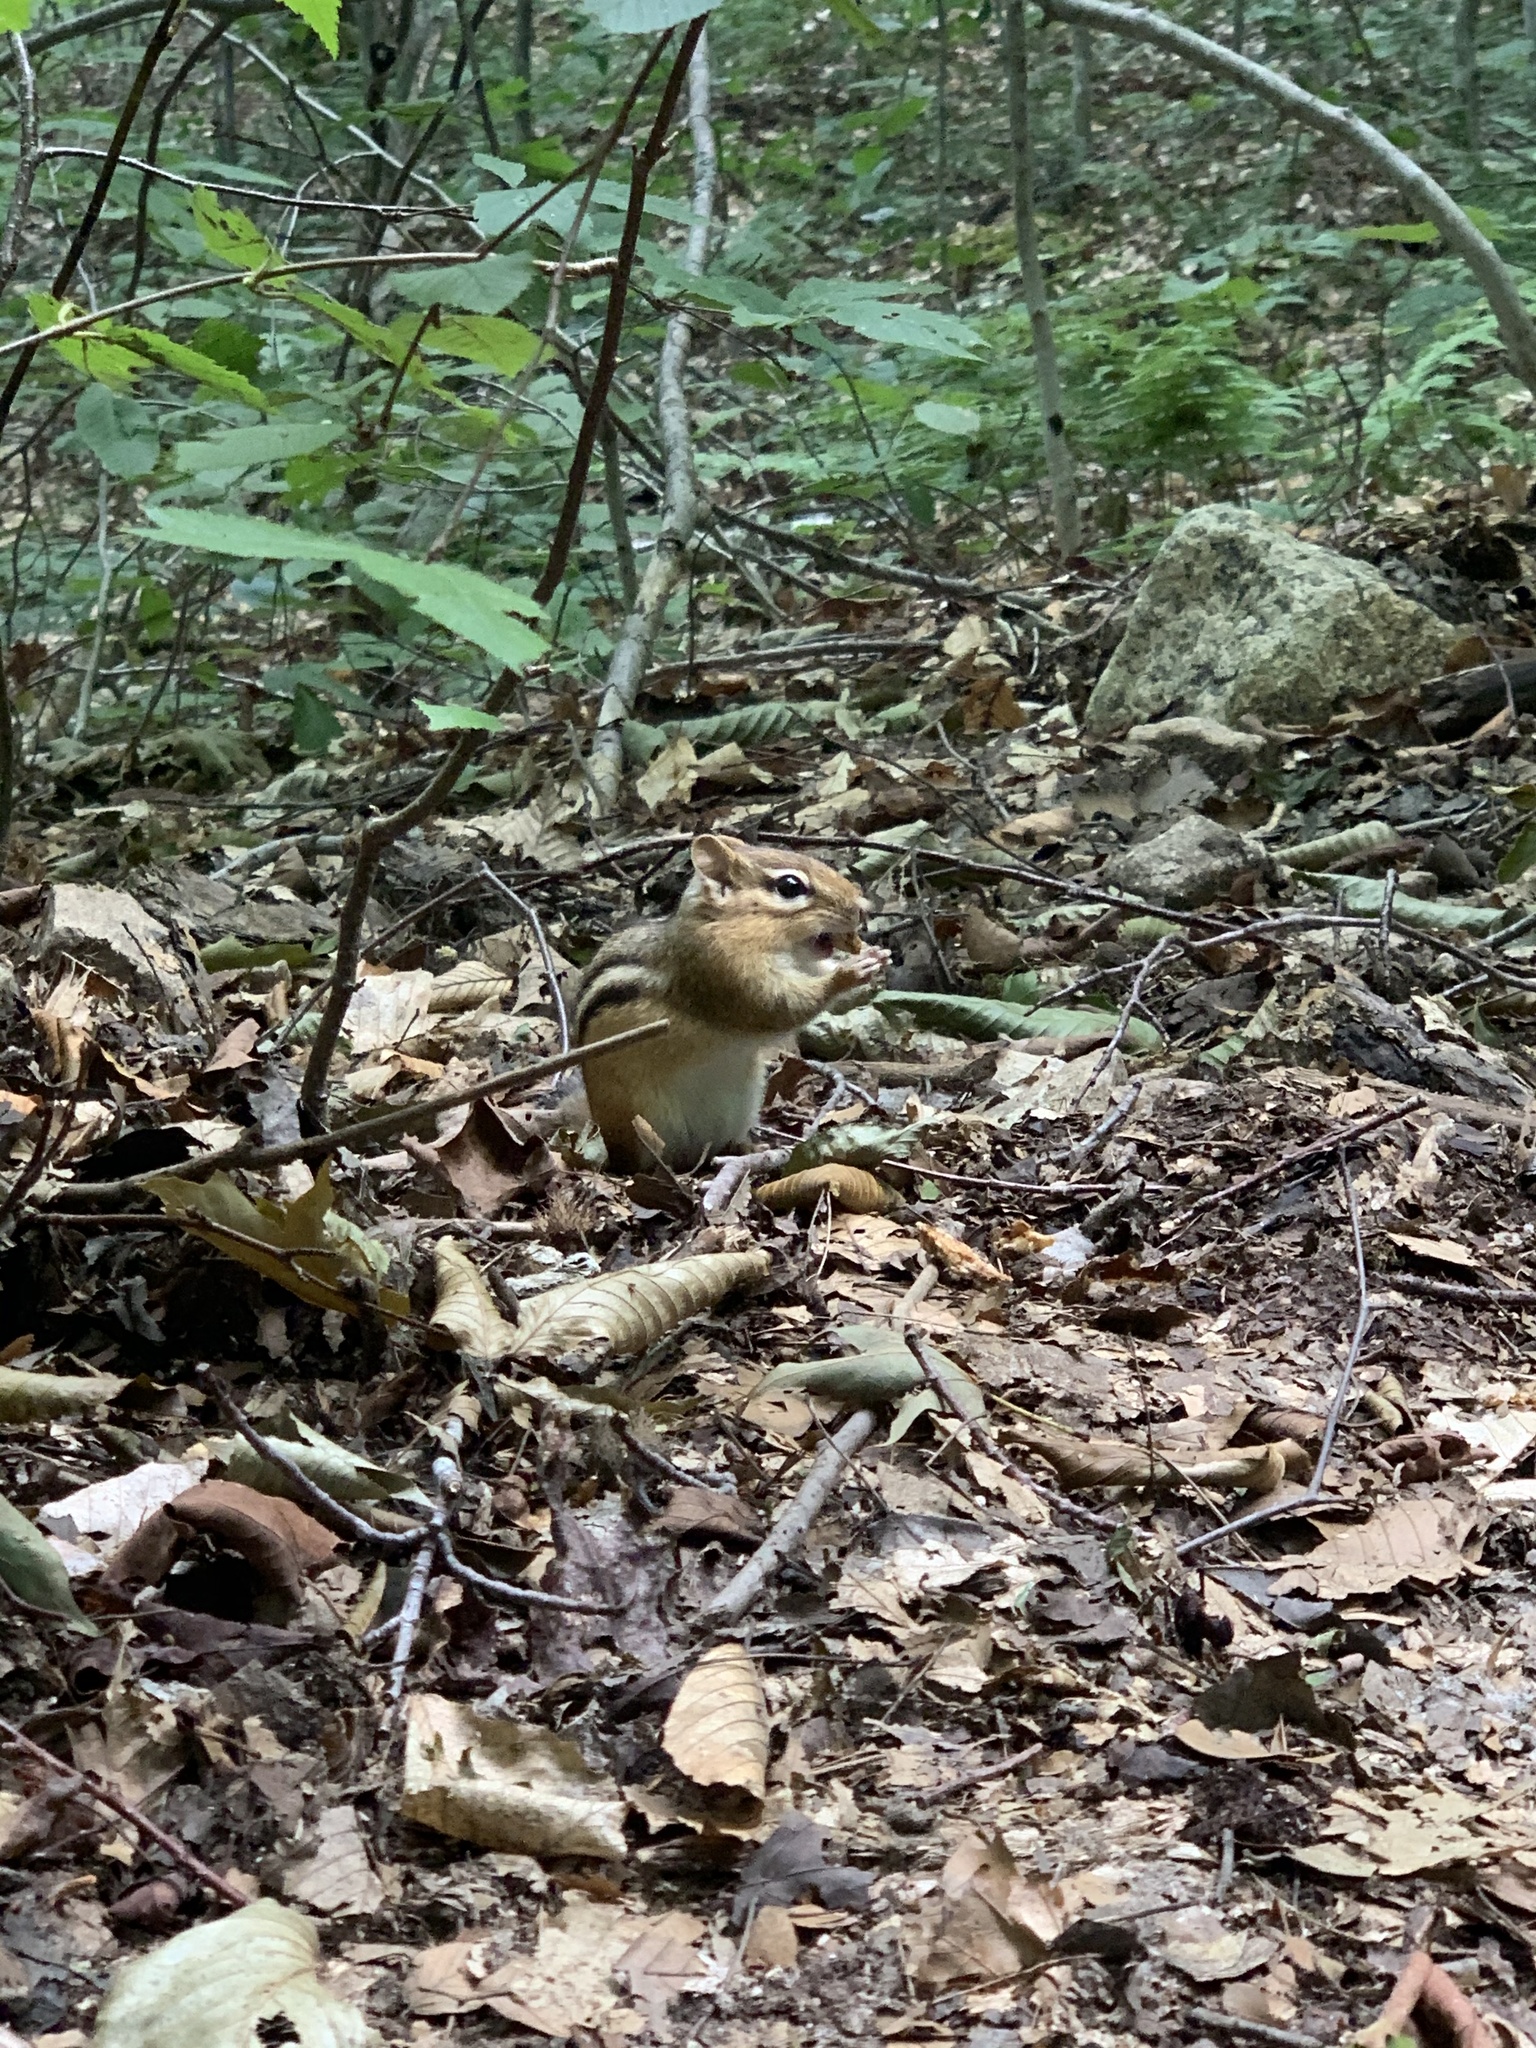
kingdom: Animalia
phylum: Chordata
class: Mammalia
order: Rodentia
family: Sciuridae
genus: Tamias
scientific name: Tamias striatus
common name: Eastern chipmunk
